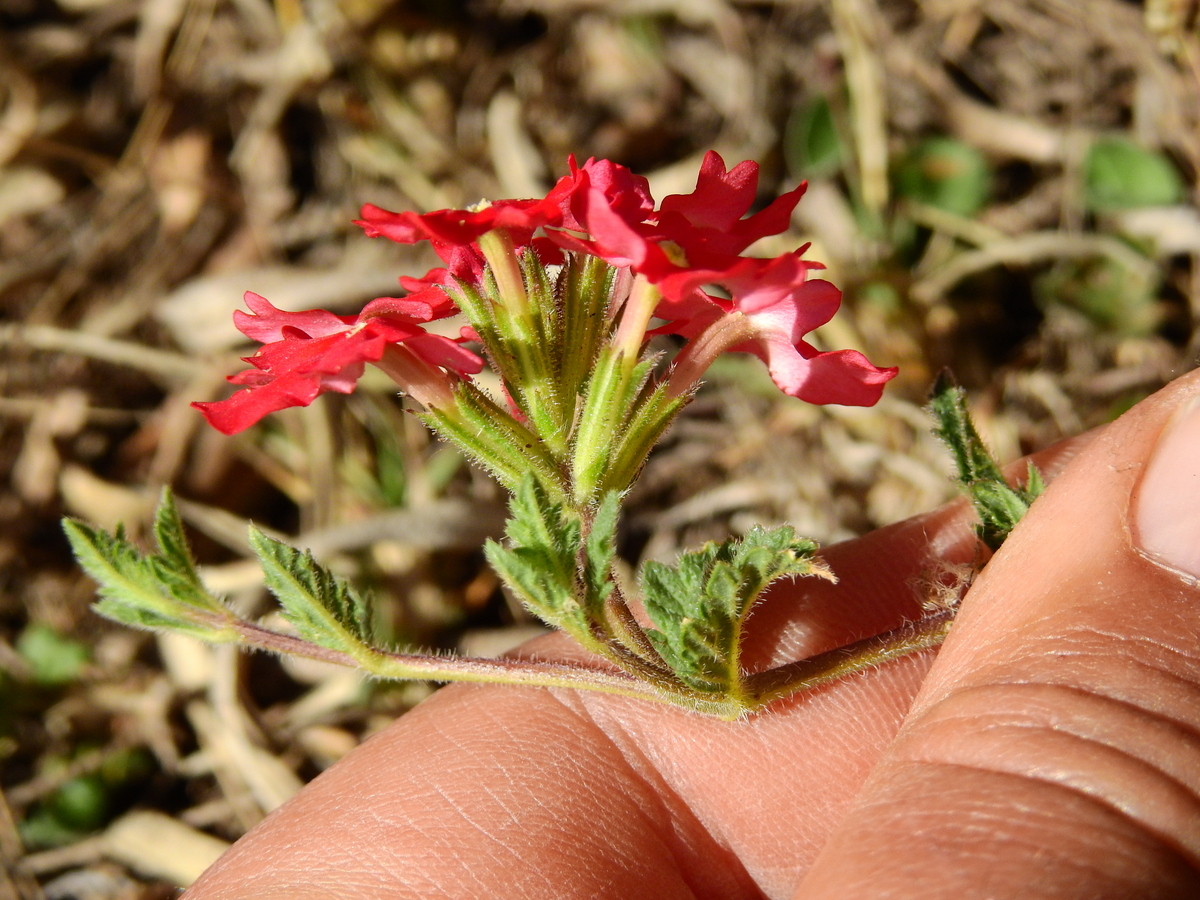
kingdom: Plantae
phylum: Tracheophyta
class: Magnoliopsida
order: Lamiales
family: Verbenaceae
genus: Verbena
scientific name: Verbena peruviana
